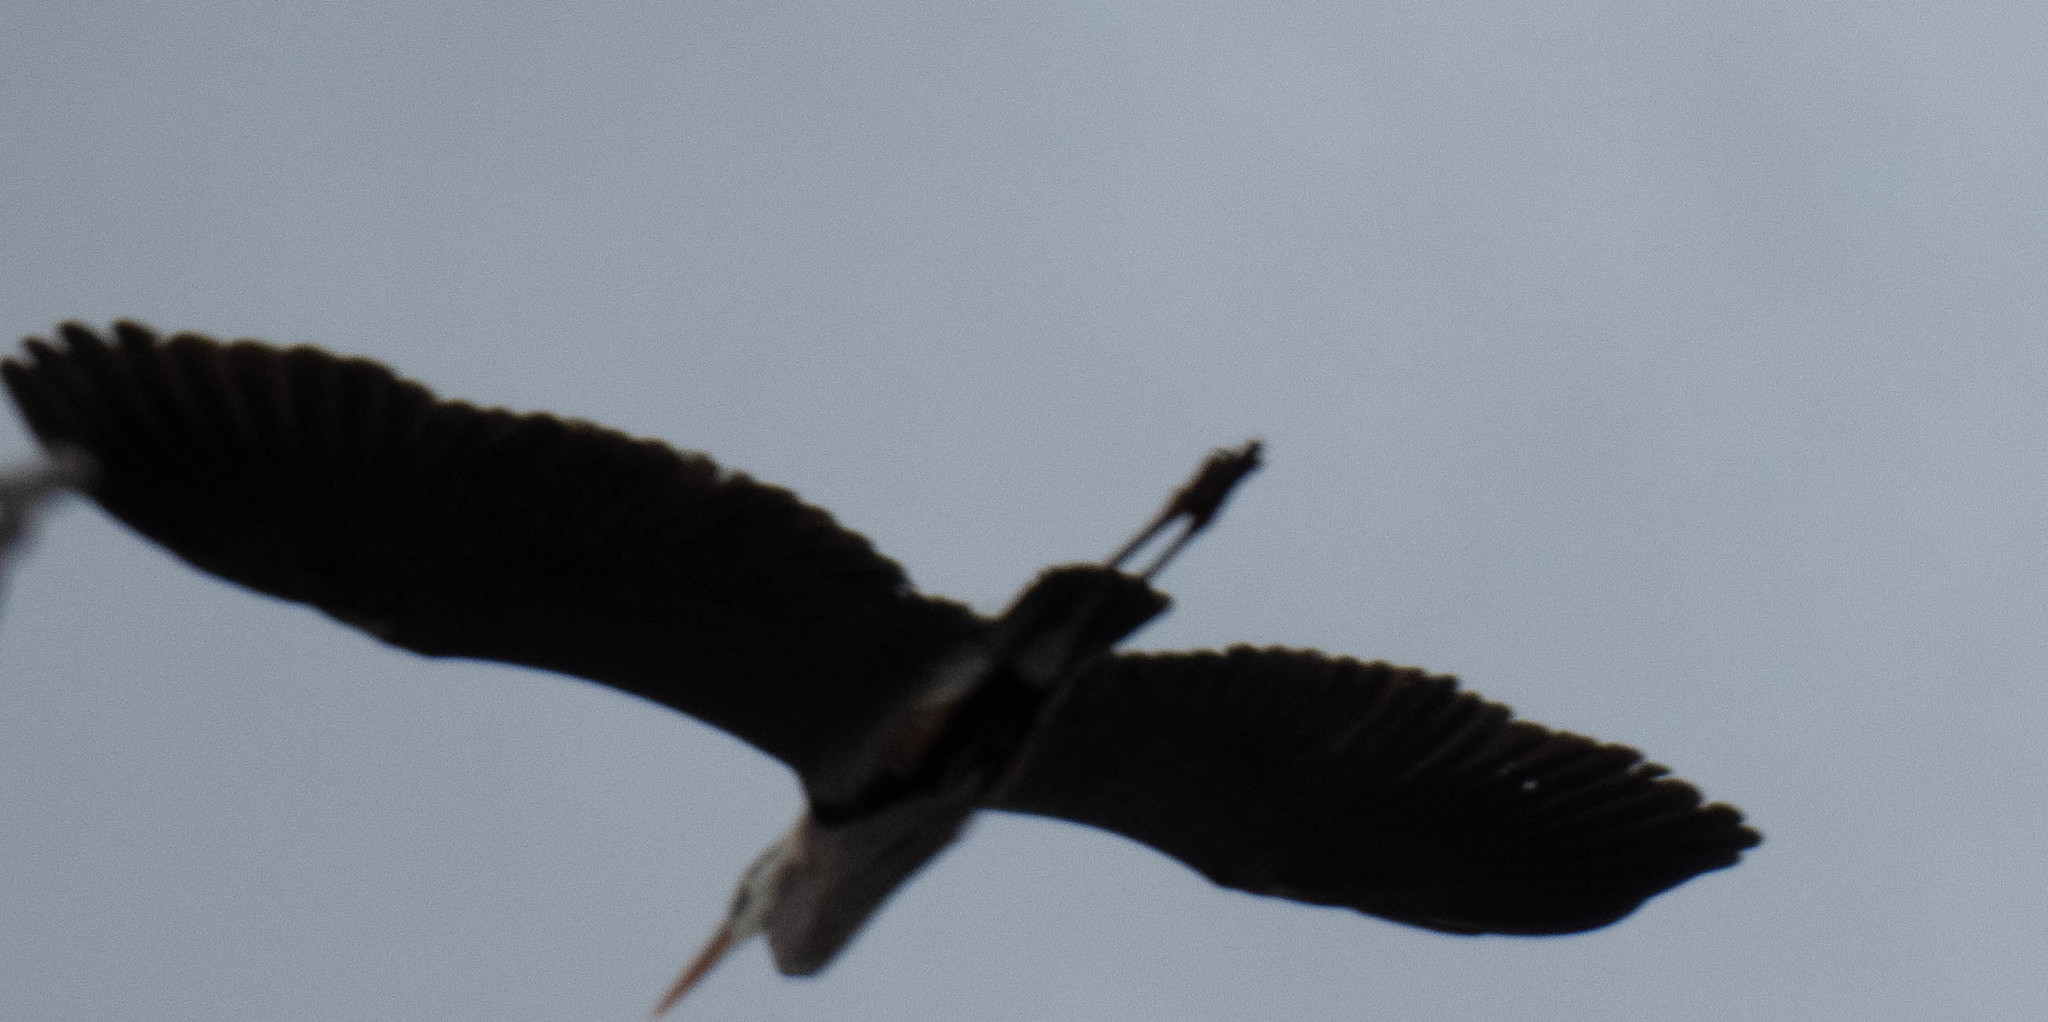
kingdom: Animalia
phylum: Chordata
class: Aves
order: Pelecaniformes
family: Ardeidae
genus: Ardea
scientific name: Ardea herodias
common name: Great blue heron
